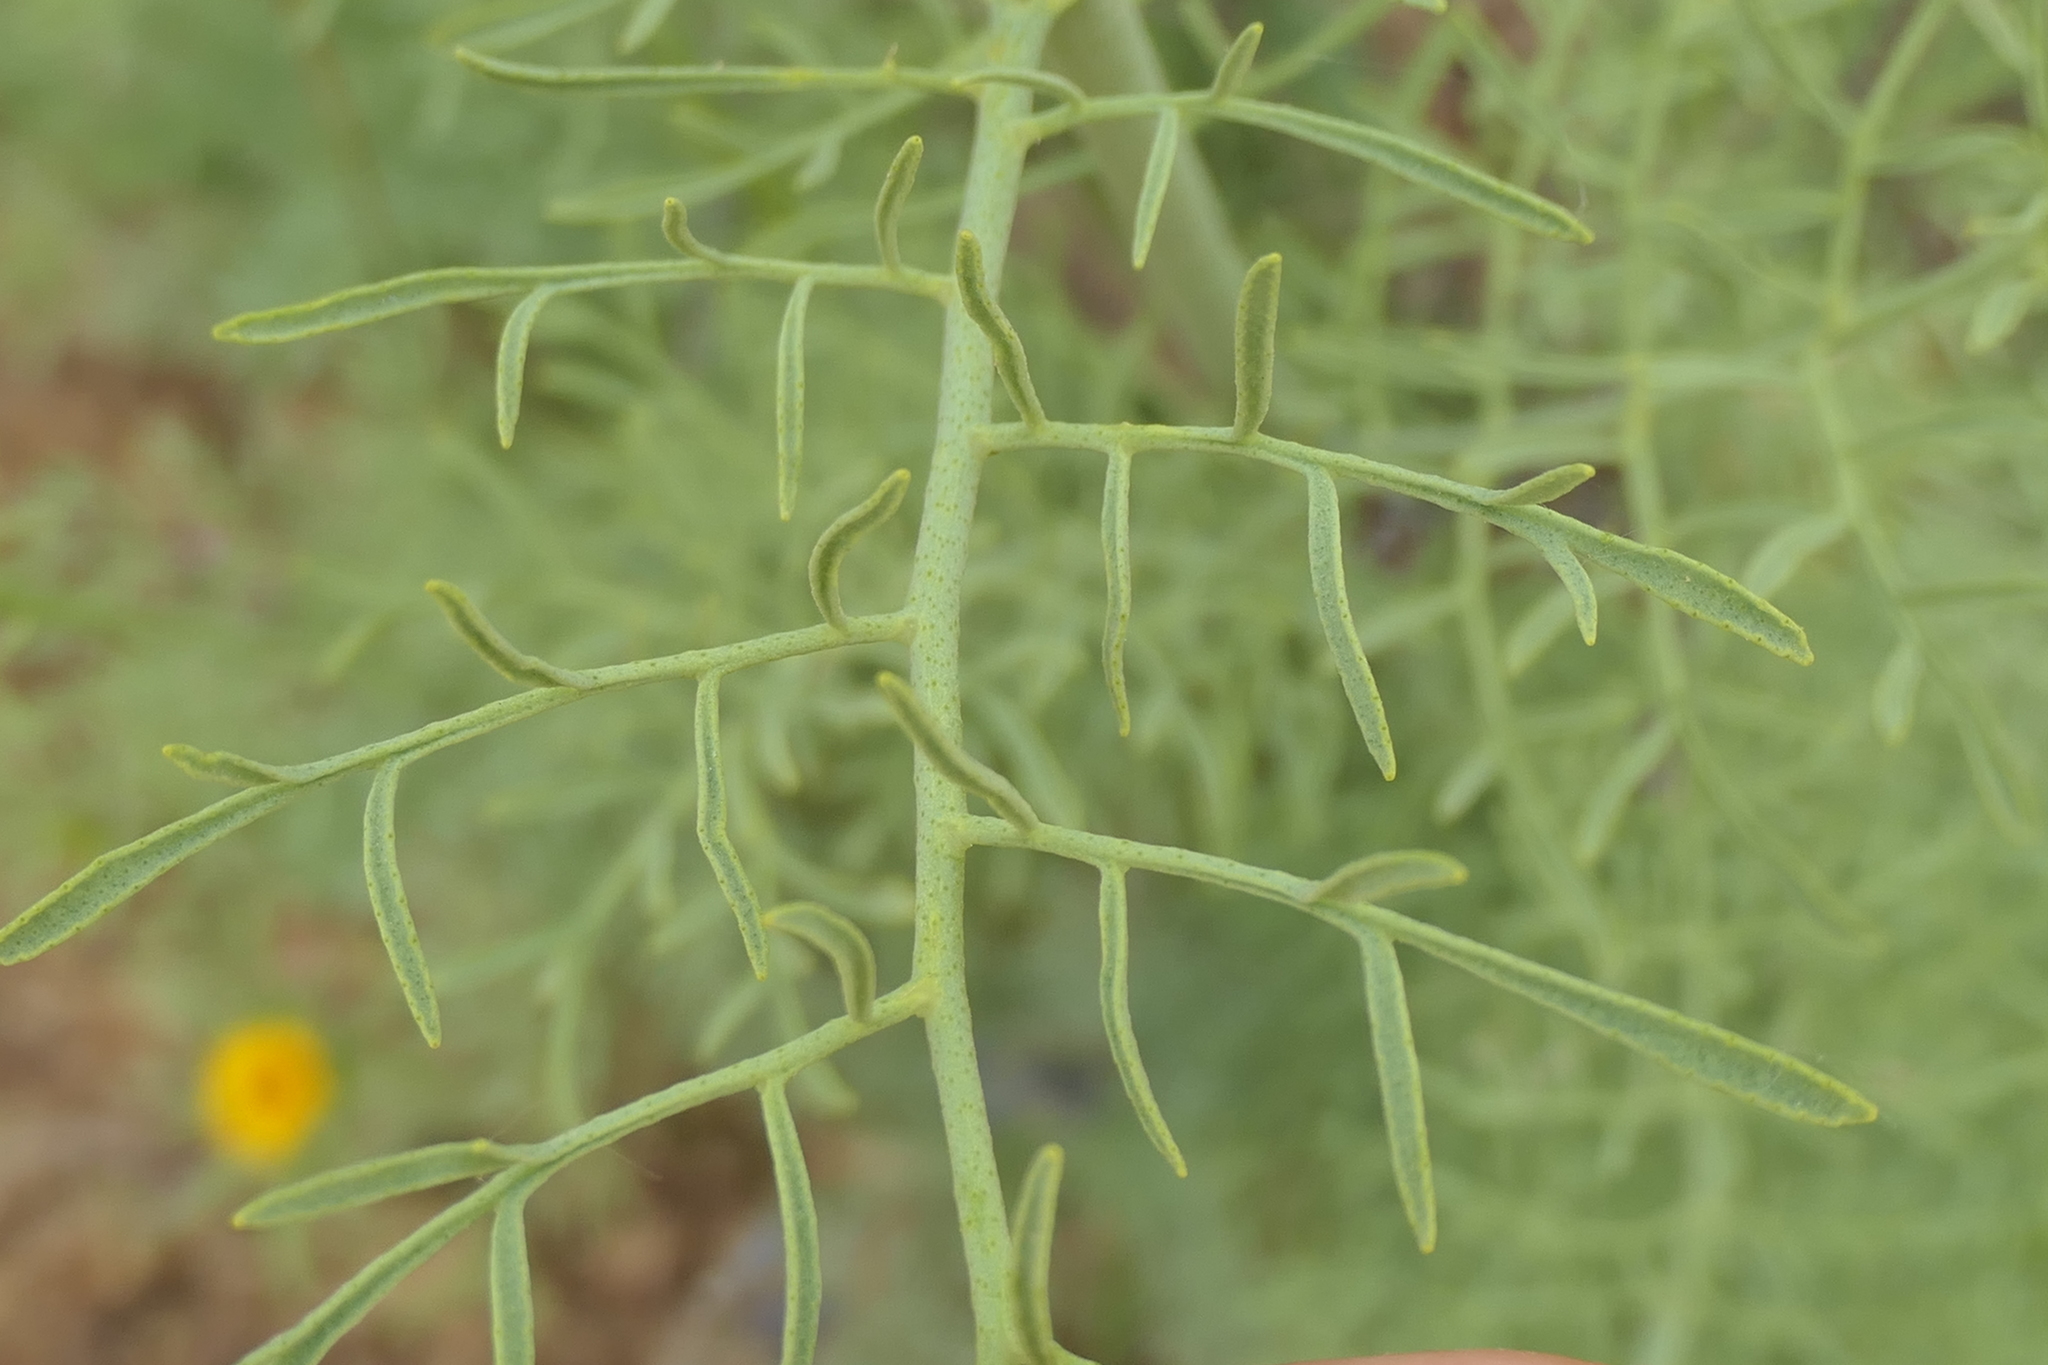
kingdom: Plantae
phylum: Tracheophyta
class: Magnoliopsida
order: Sapindales
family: Rutaceae
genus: Ruta
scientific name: Ruta montana
